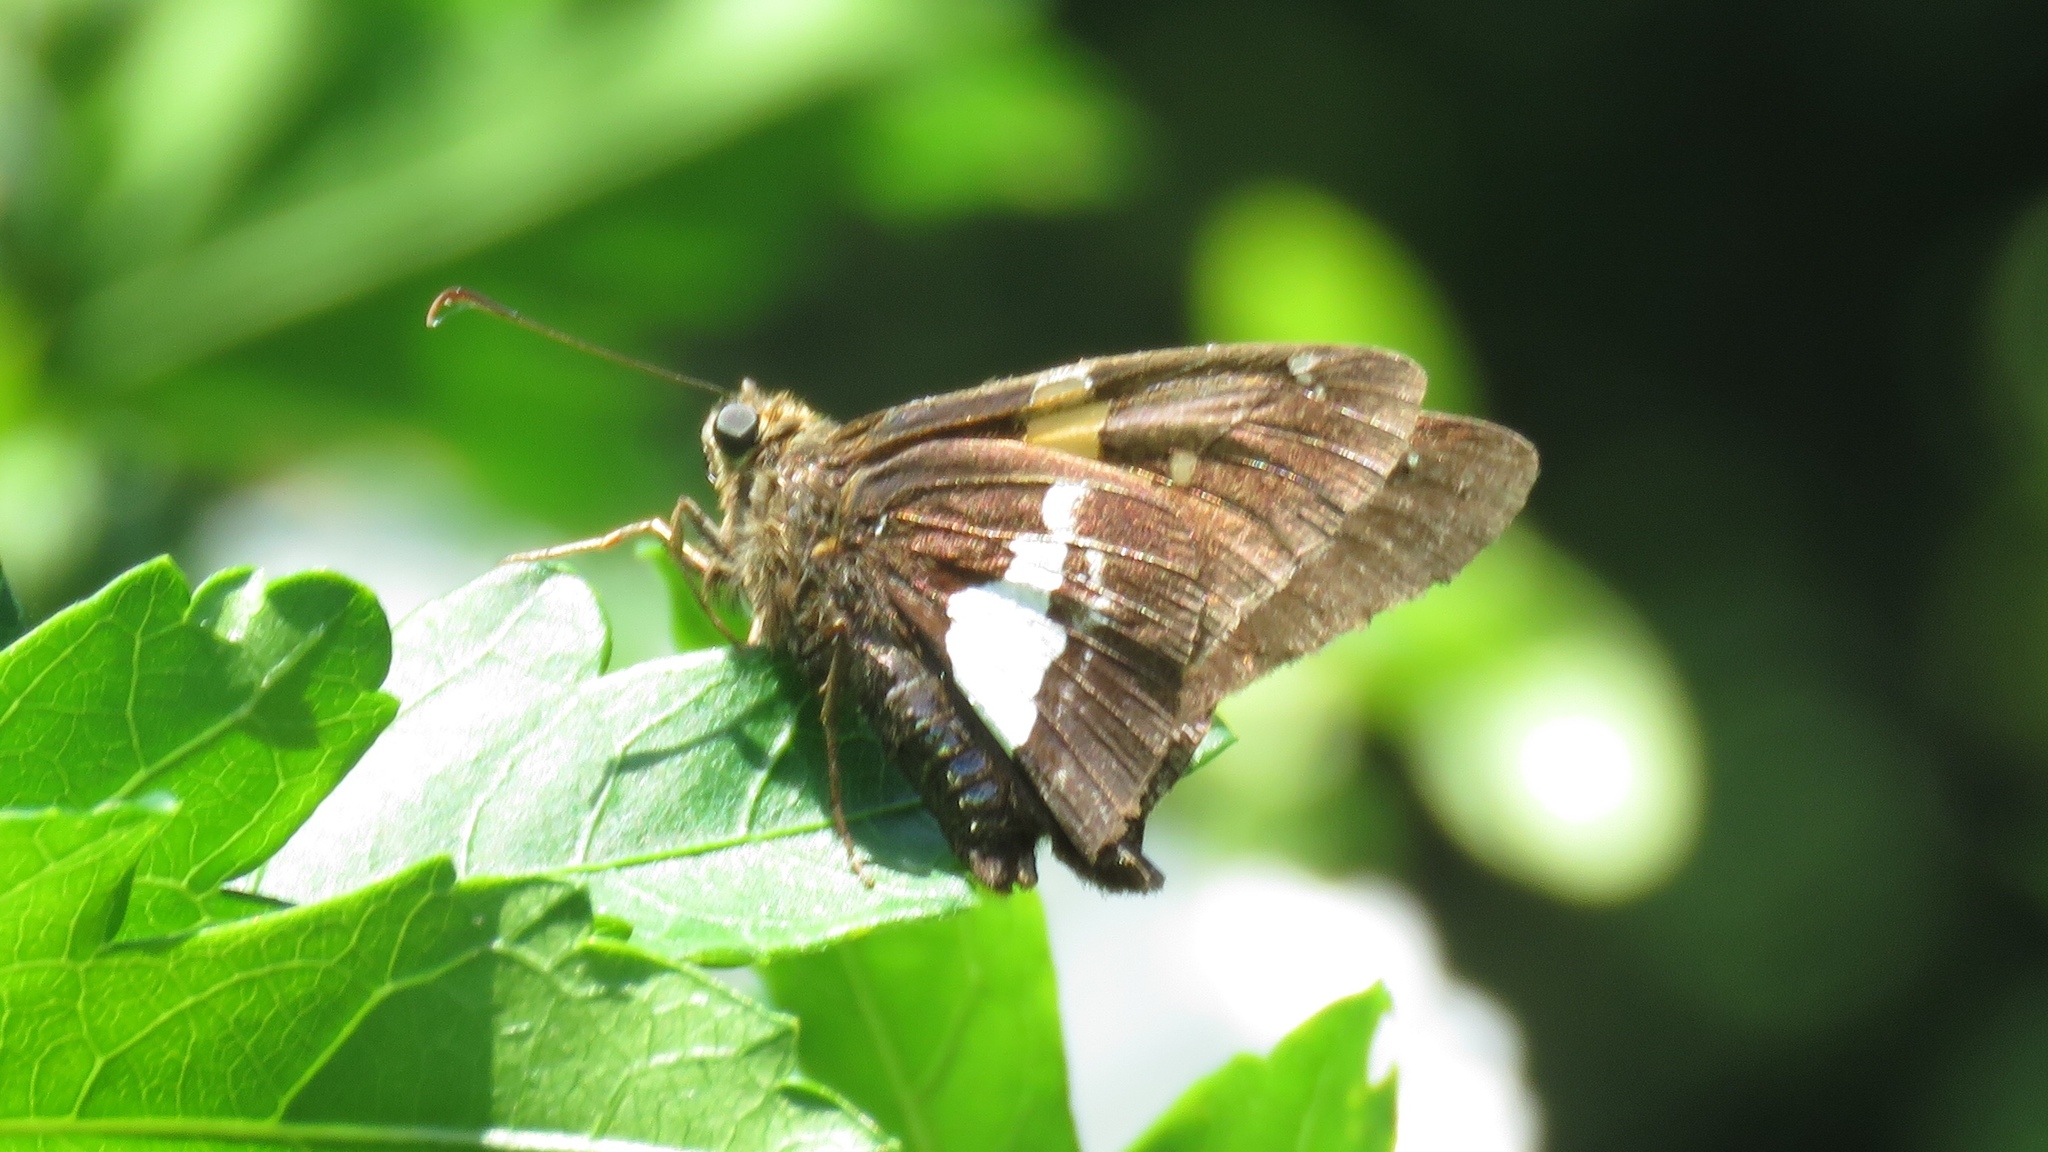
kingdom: Animalia
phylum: Arthropoda
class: Insecta
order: Lepidoptera
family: Hesperiidae
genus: Epargyreus
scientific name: Epargyreus clarus
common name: Silver-spotted skipper
